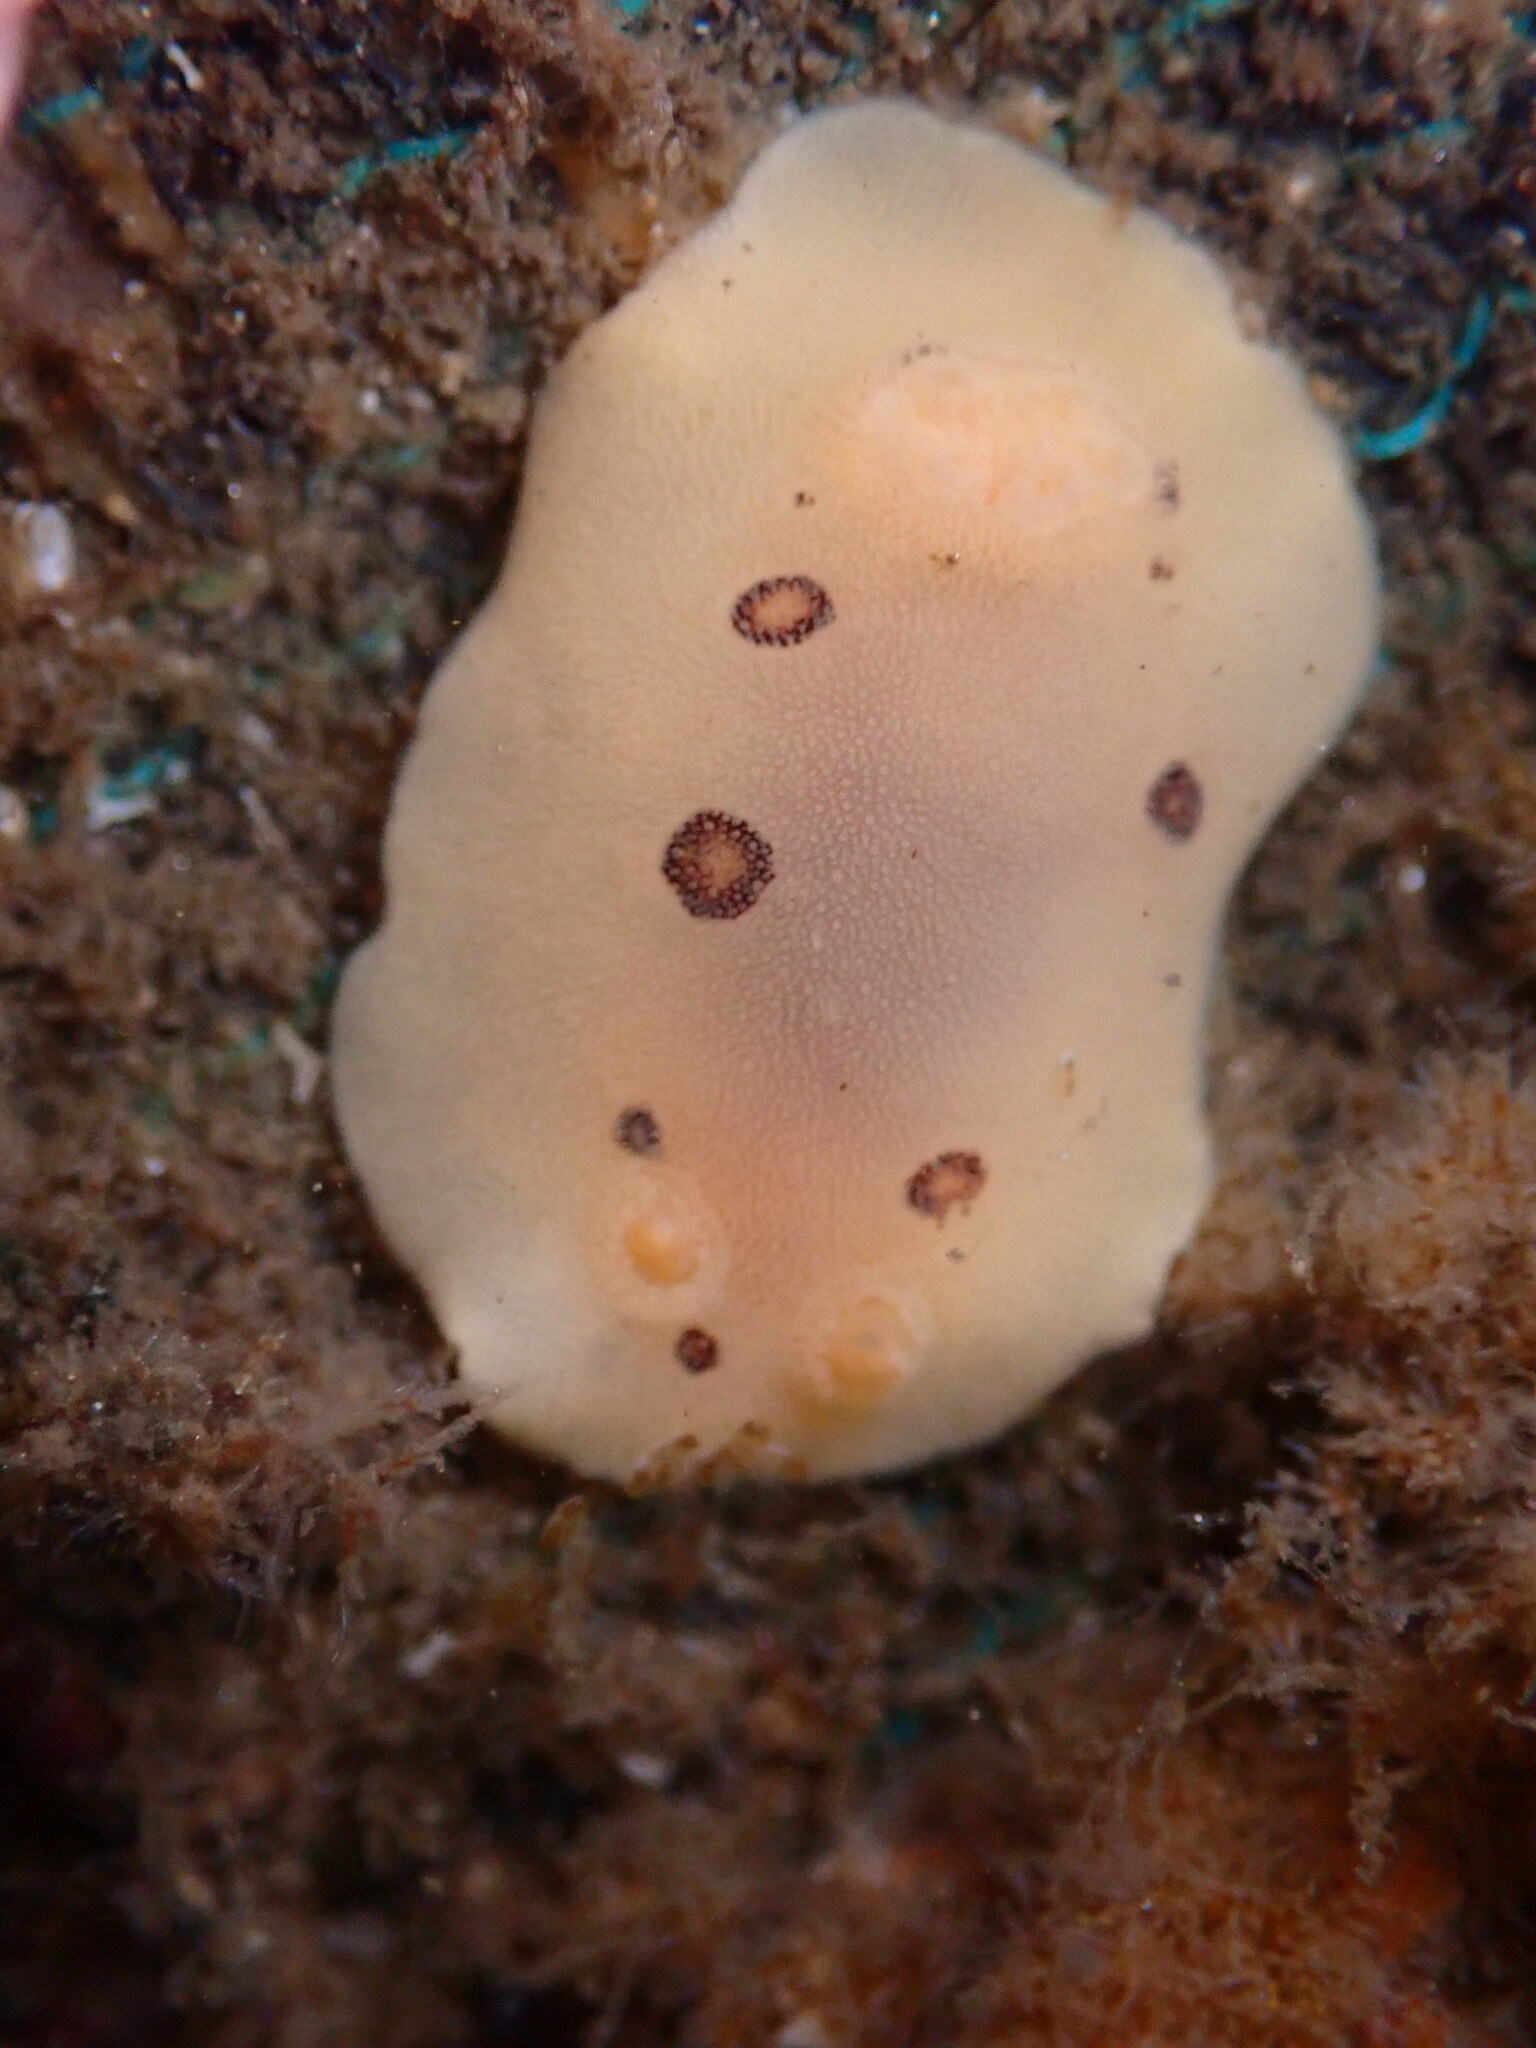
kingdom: Animalia
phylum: Mollusca
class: Gastropoda
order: Nudibranchia
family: Discodorididae
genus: Diaulula
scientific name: Diaulula sandiegensis
